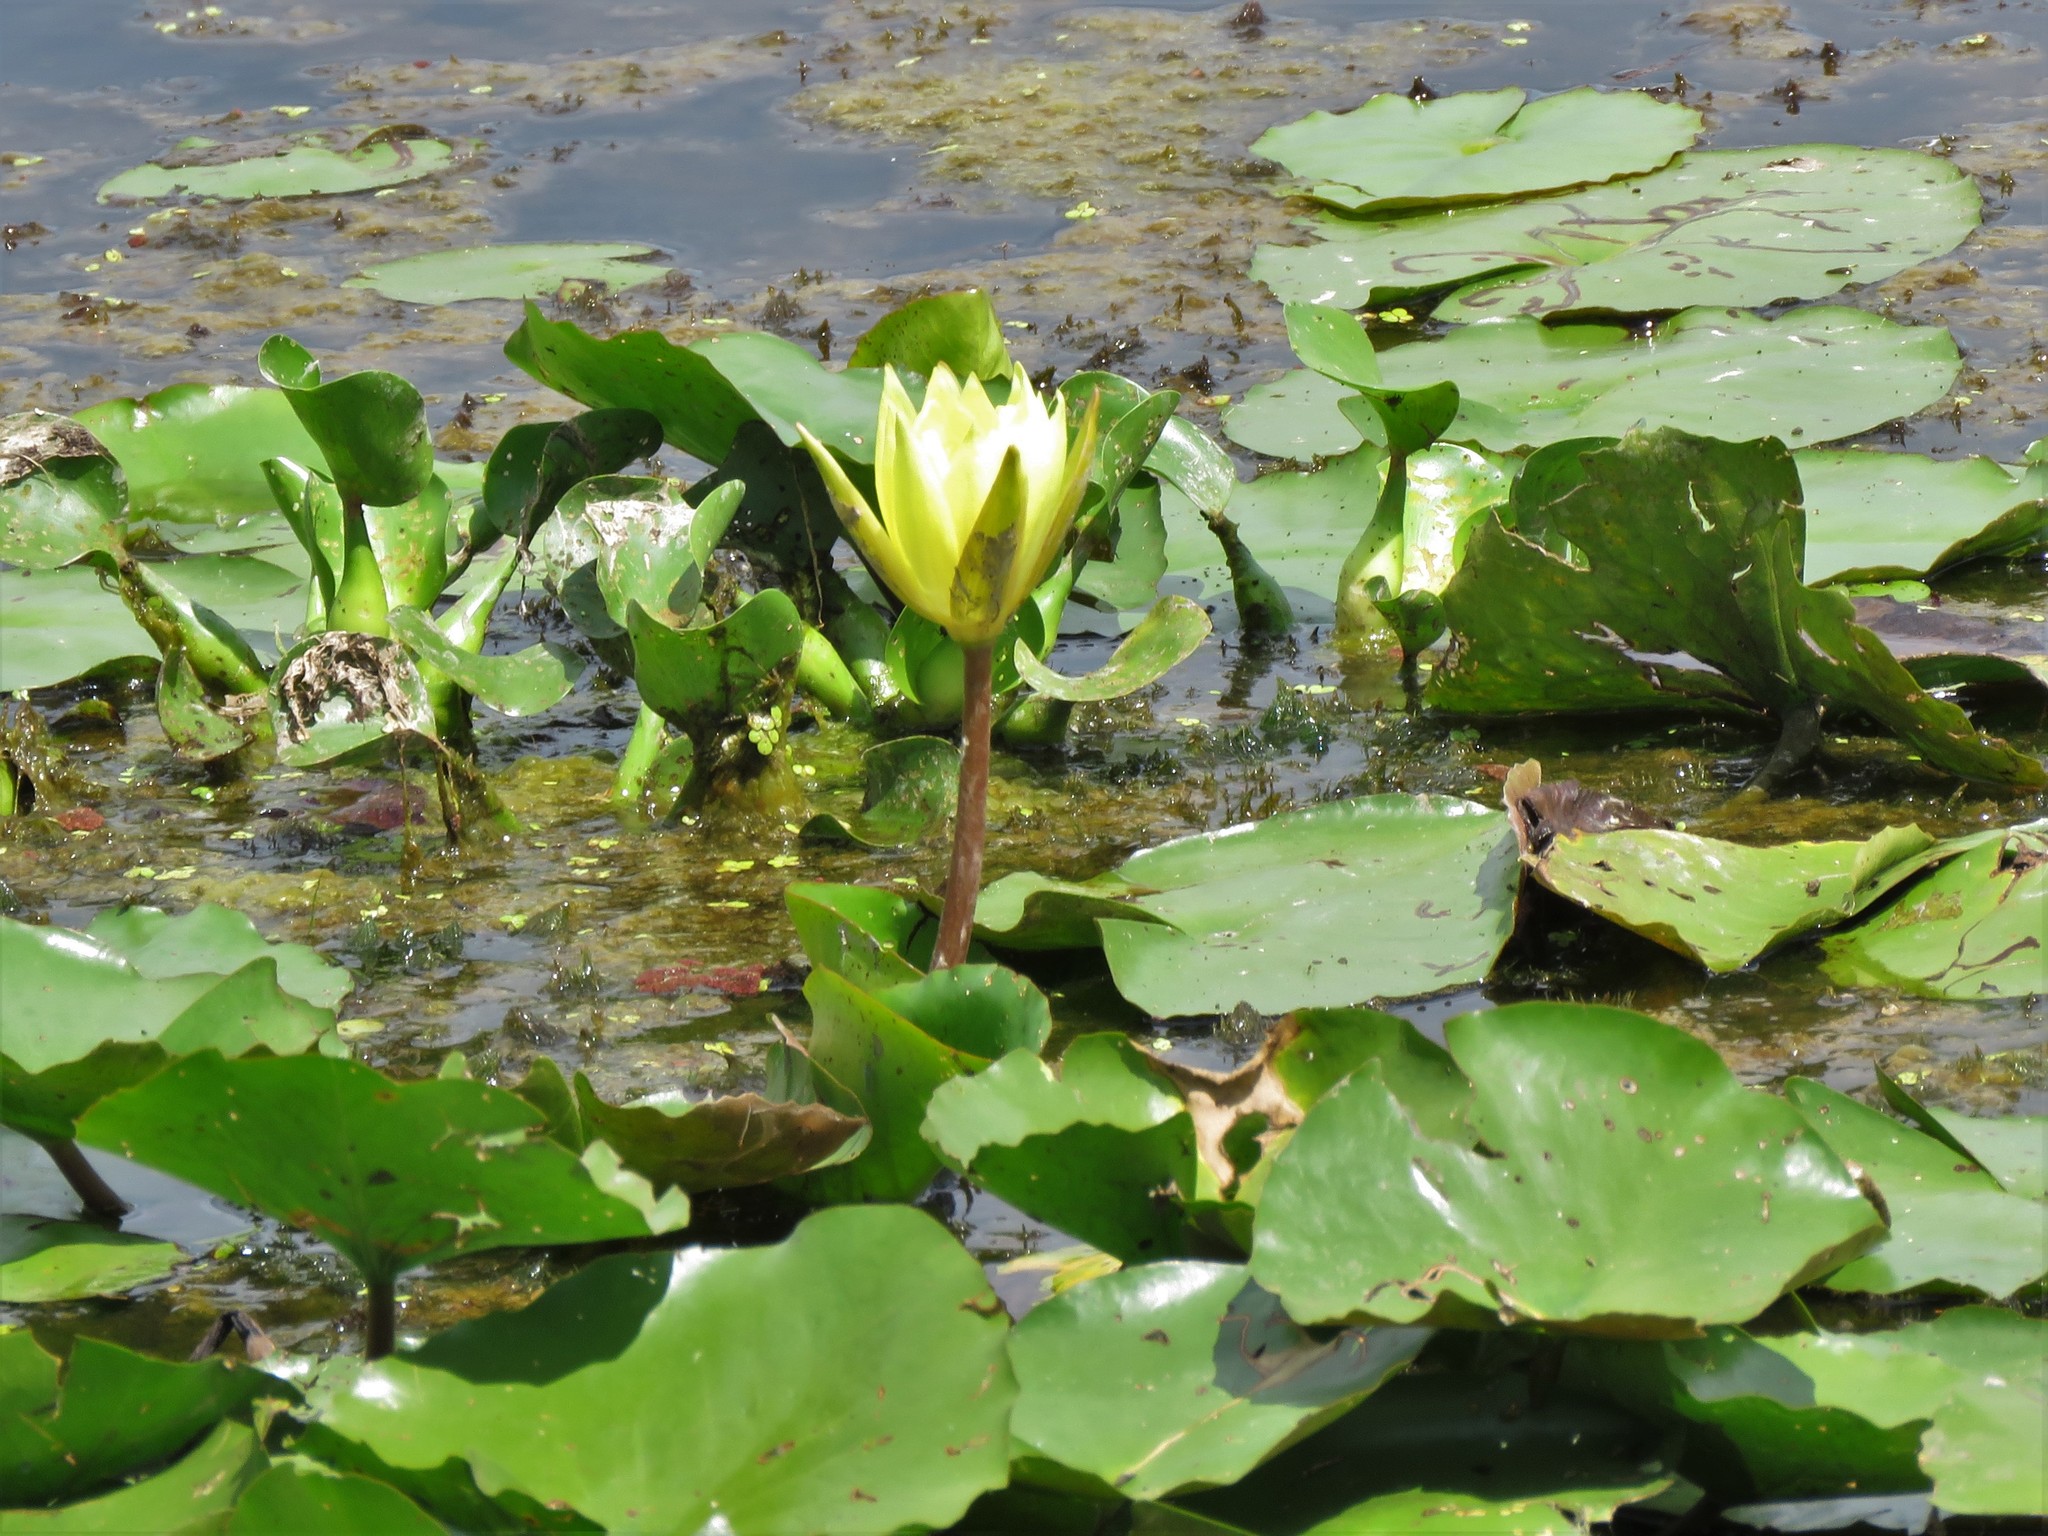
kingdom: Plantae
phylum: Tracheophyta
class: Magnoliopsida
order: Nymphaeales
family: Nymphaeaceae
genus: Nymphaea
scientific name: Nymphaea odorata
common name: Fragrant water-lily
